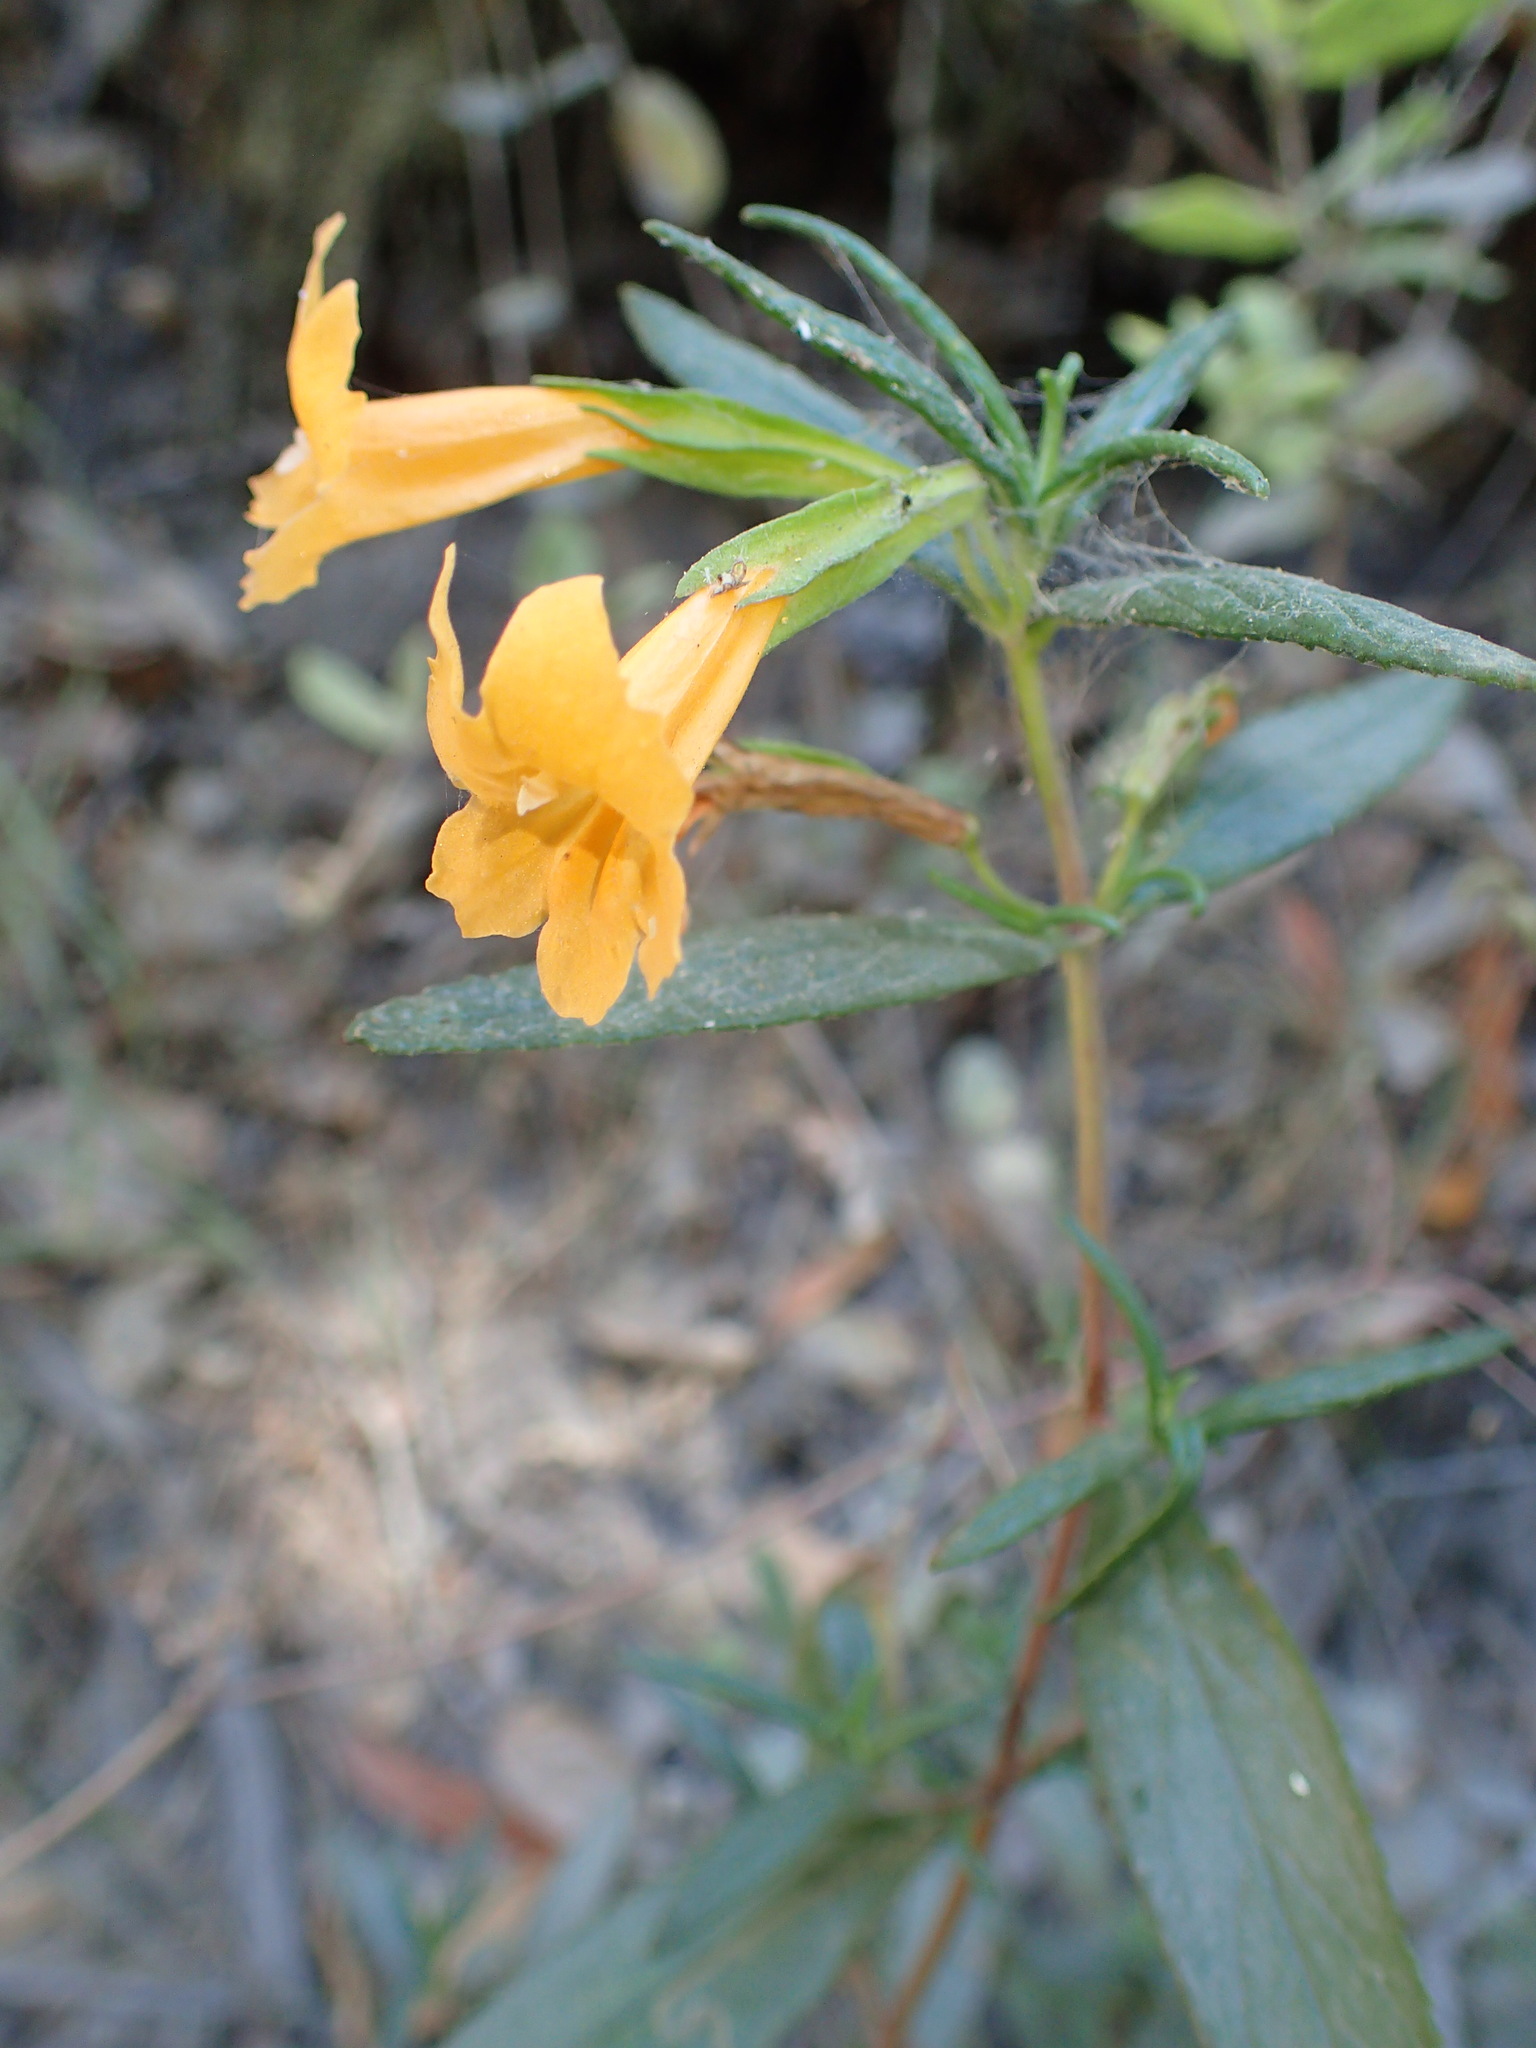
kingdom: Plantae
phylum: Tracheophyta
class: Magnoliopsida
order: Lamiales
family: Phrymaceae
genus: Diplacus
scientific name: Diplacus aurantiacus
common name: Bush monkey-flower
